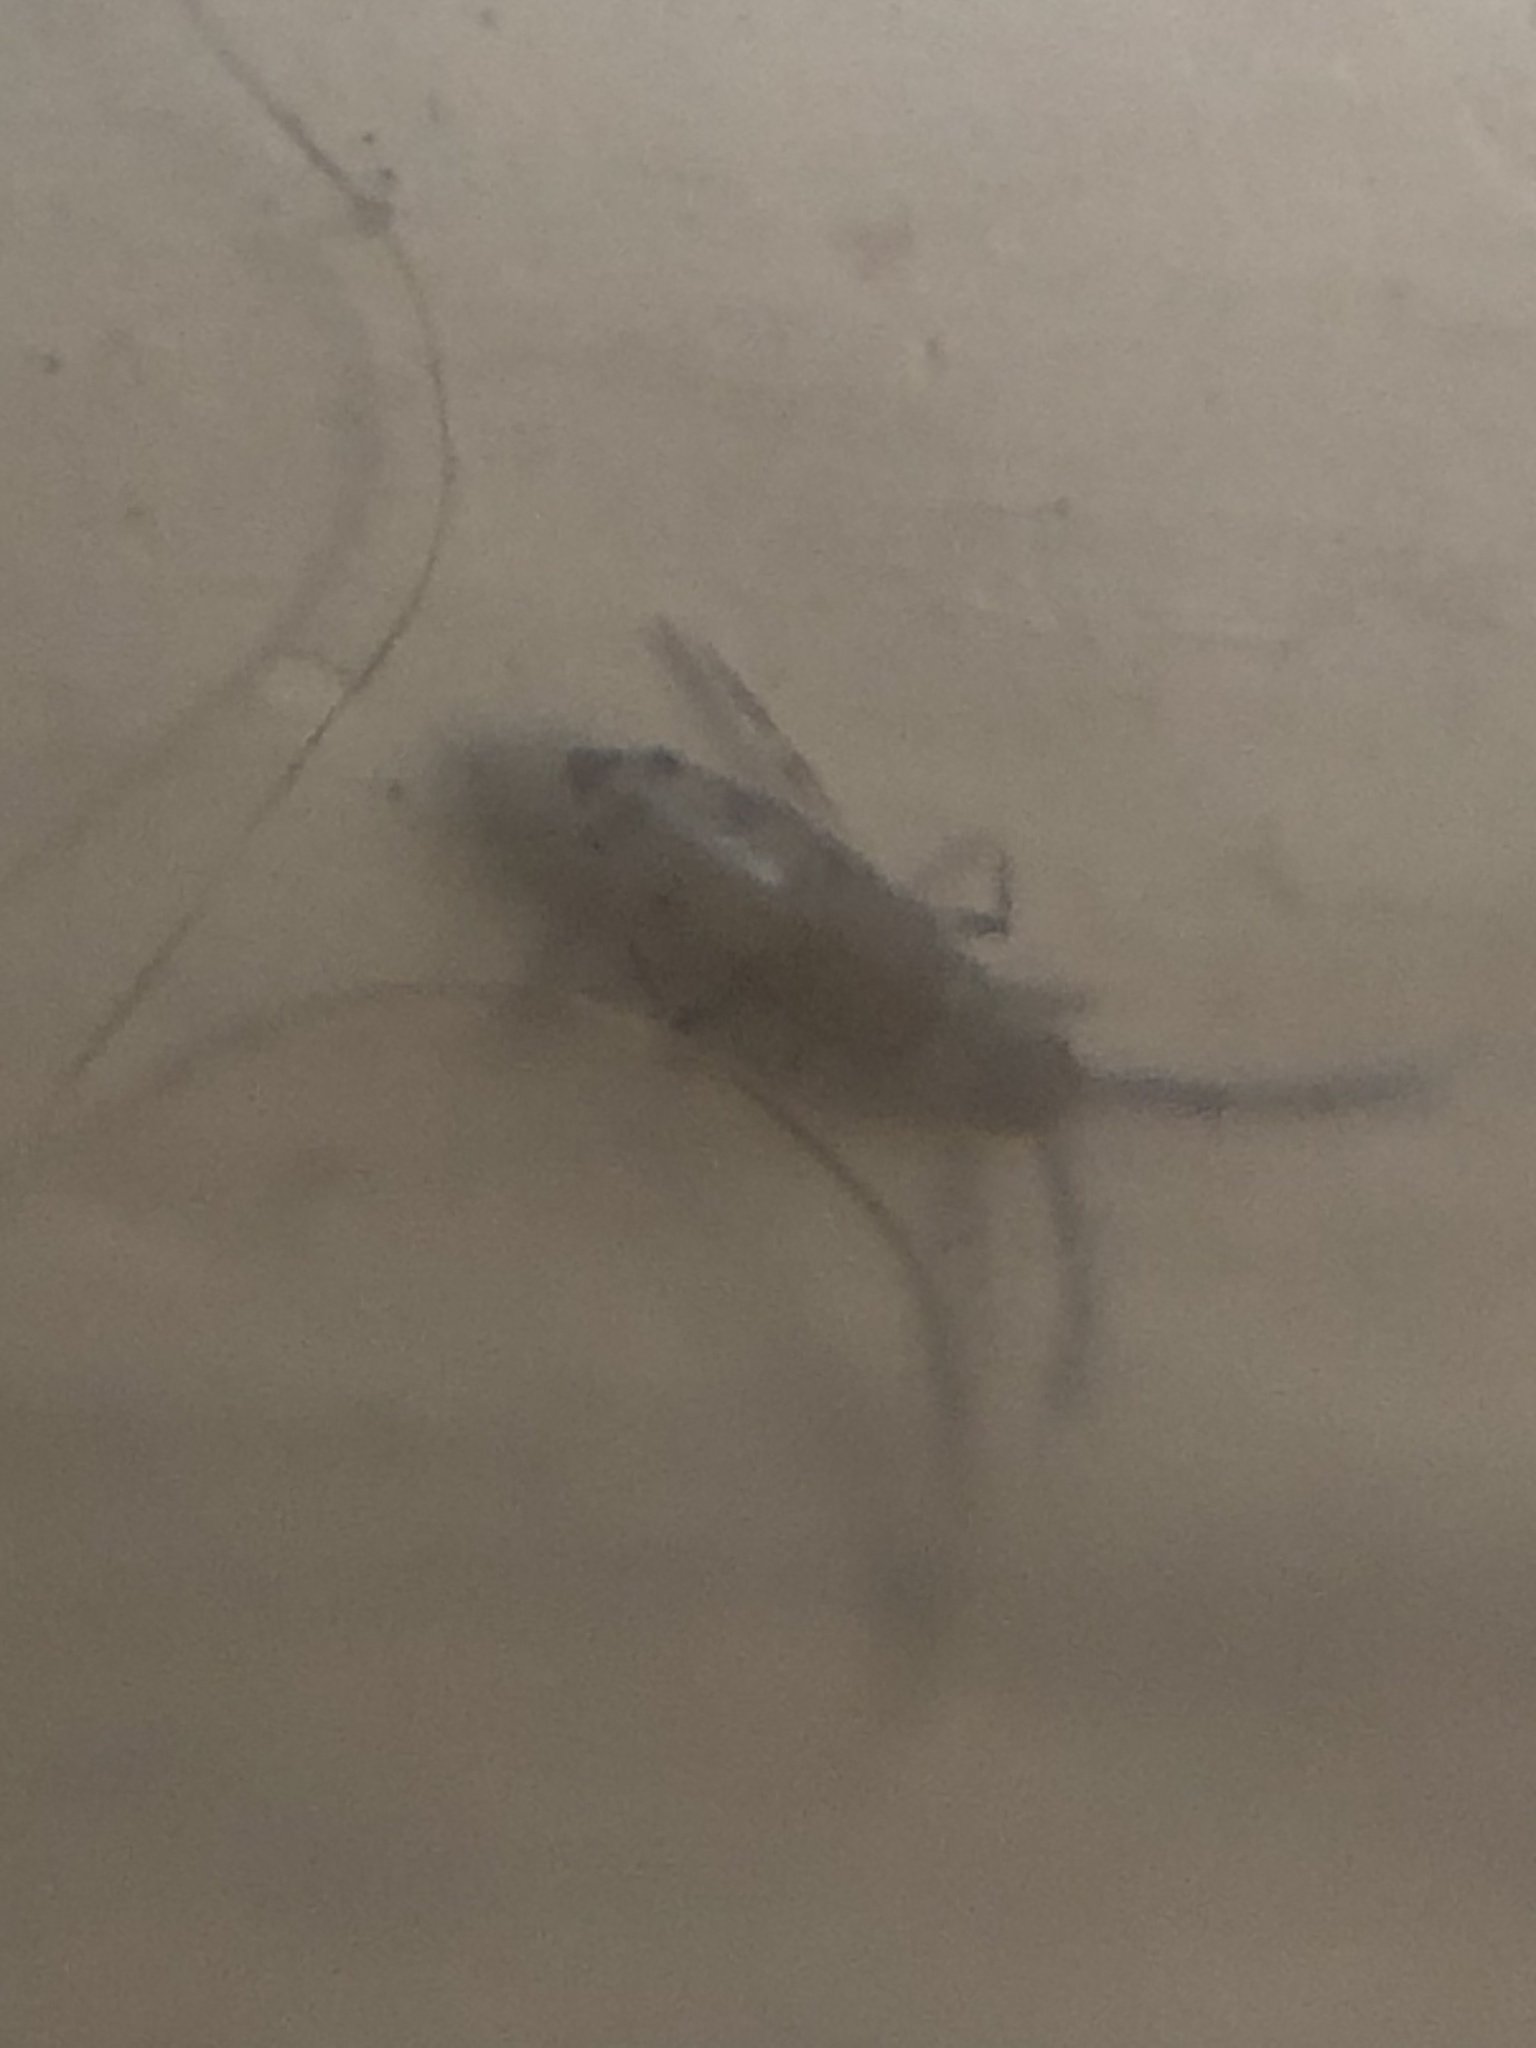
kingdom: Animalia
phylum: Arthropoda
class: Collembola
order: Entomobryomorpha
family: Entomobryidae
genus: Willowsia
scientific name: Willowsia nigromaculata
